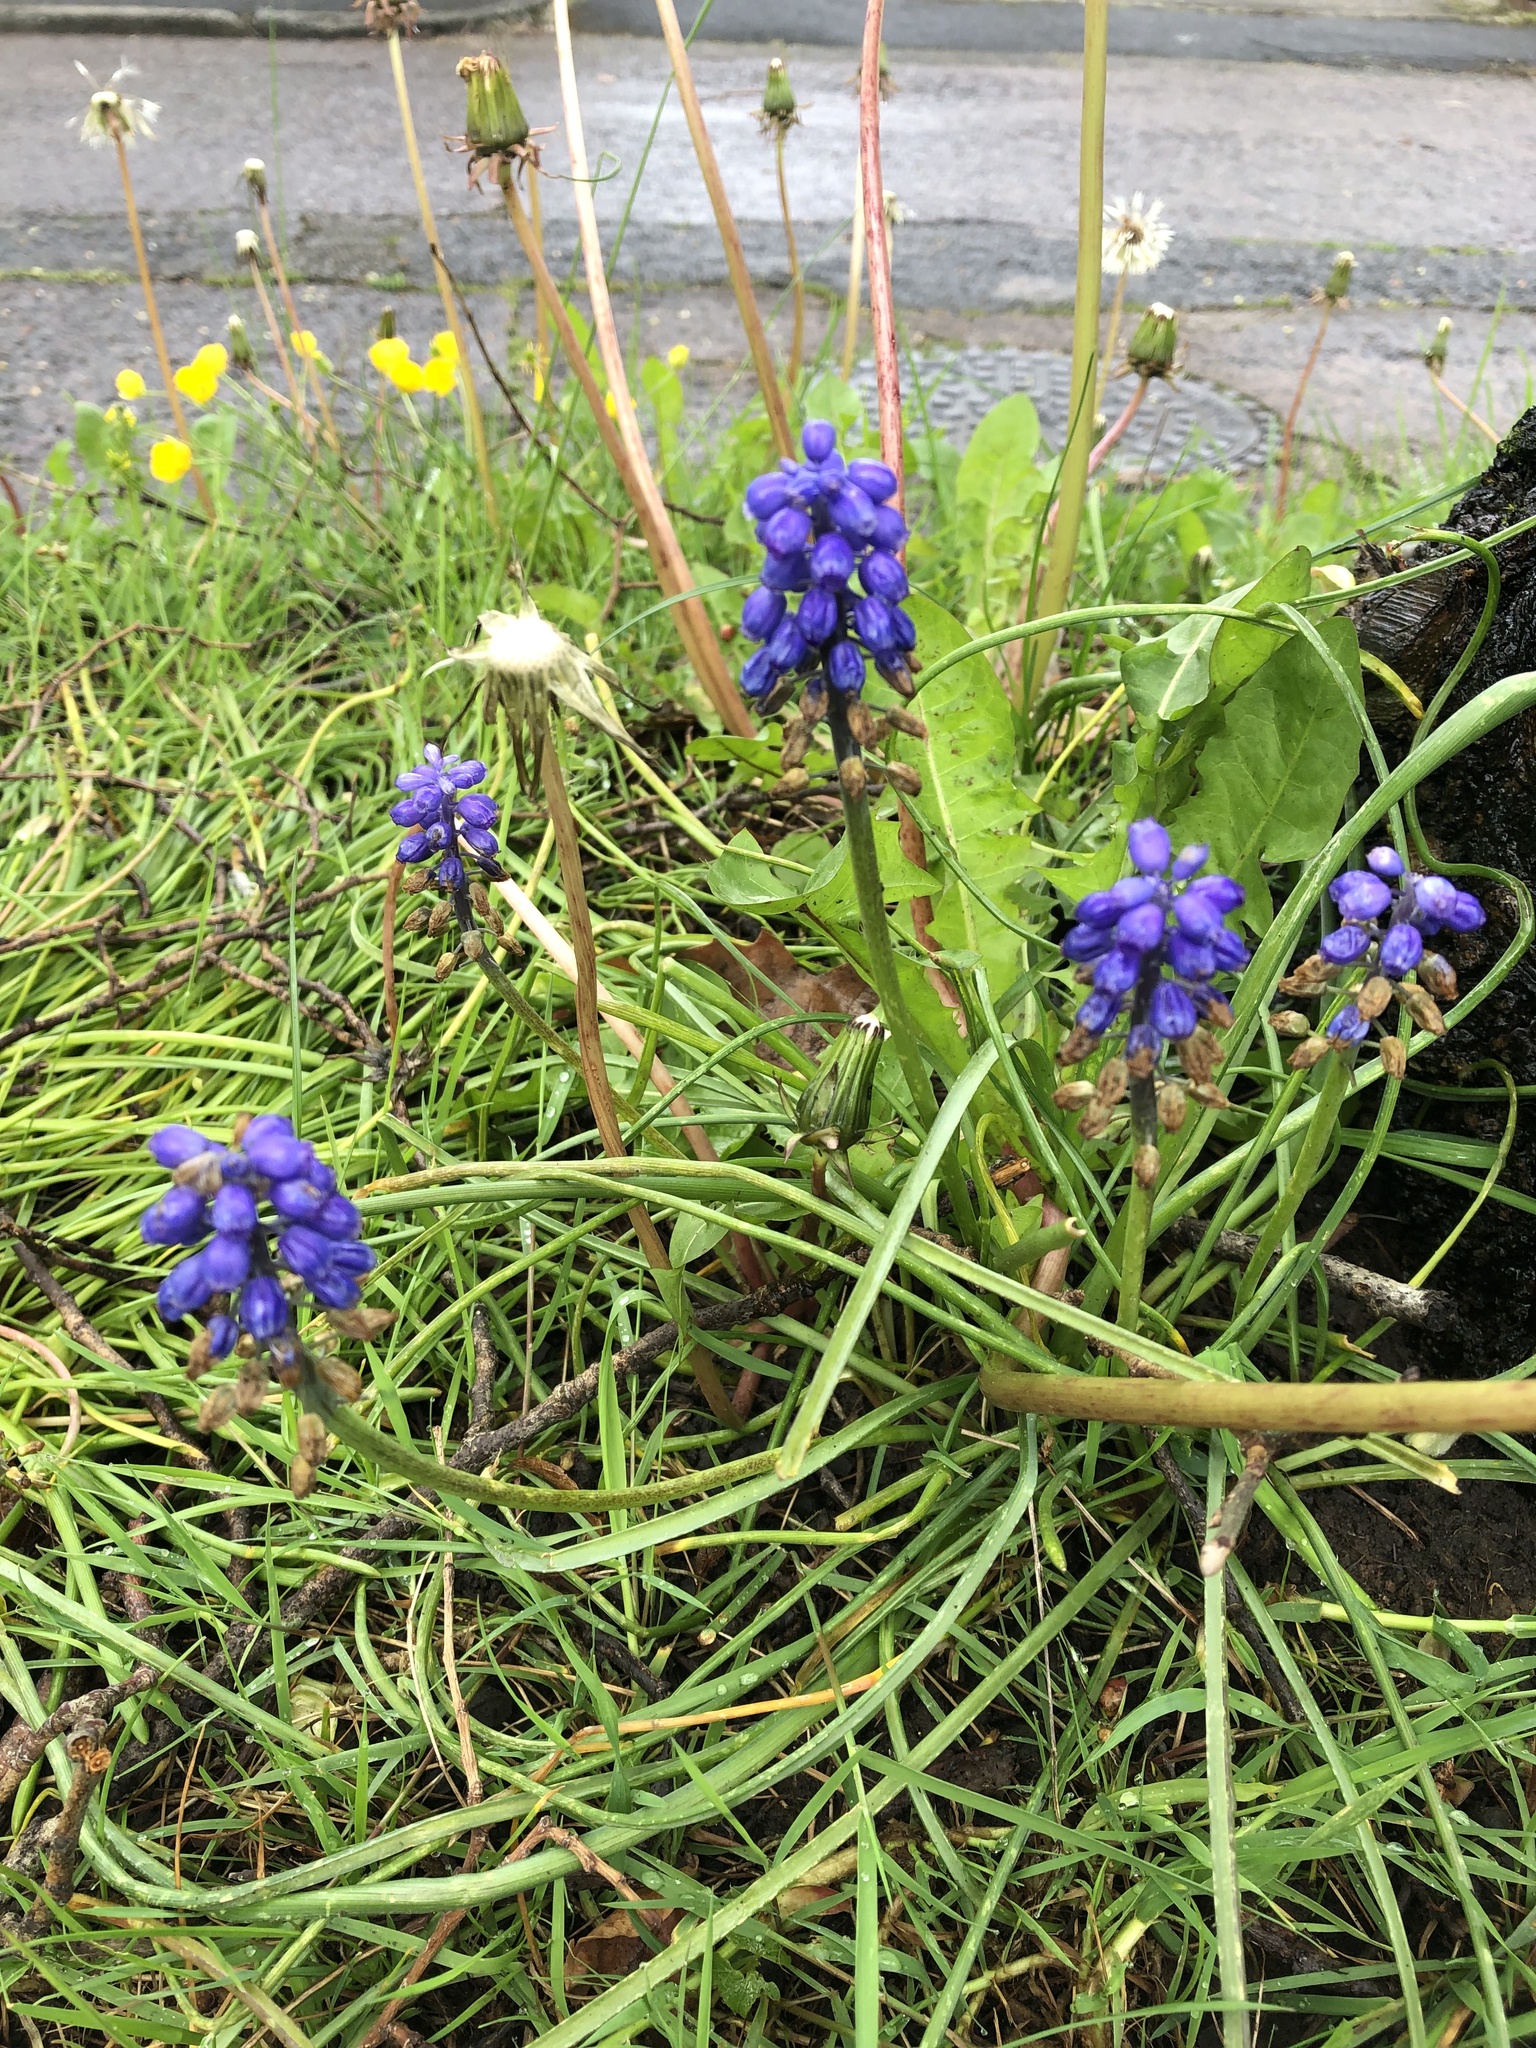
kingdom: Plantae
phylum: Tracheophyta
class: Liliopsida
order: Asparagales
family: Asparagaceae
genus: Muscari
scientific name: Muscari armeniacum
